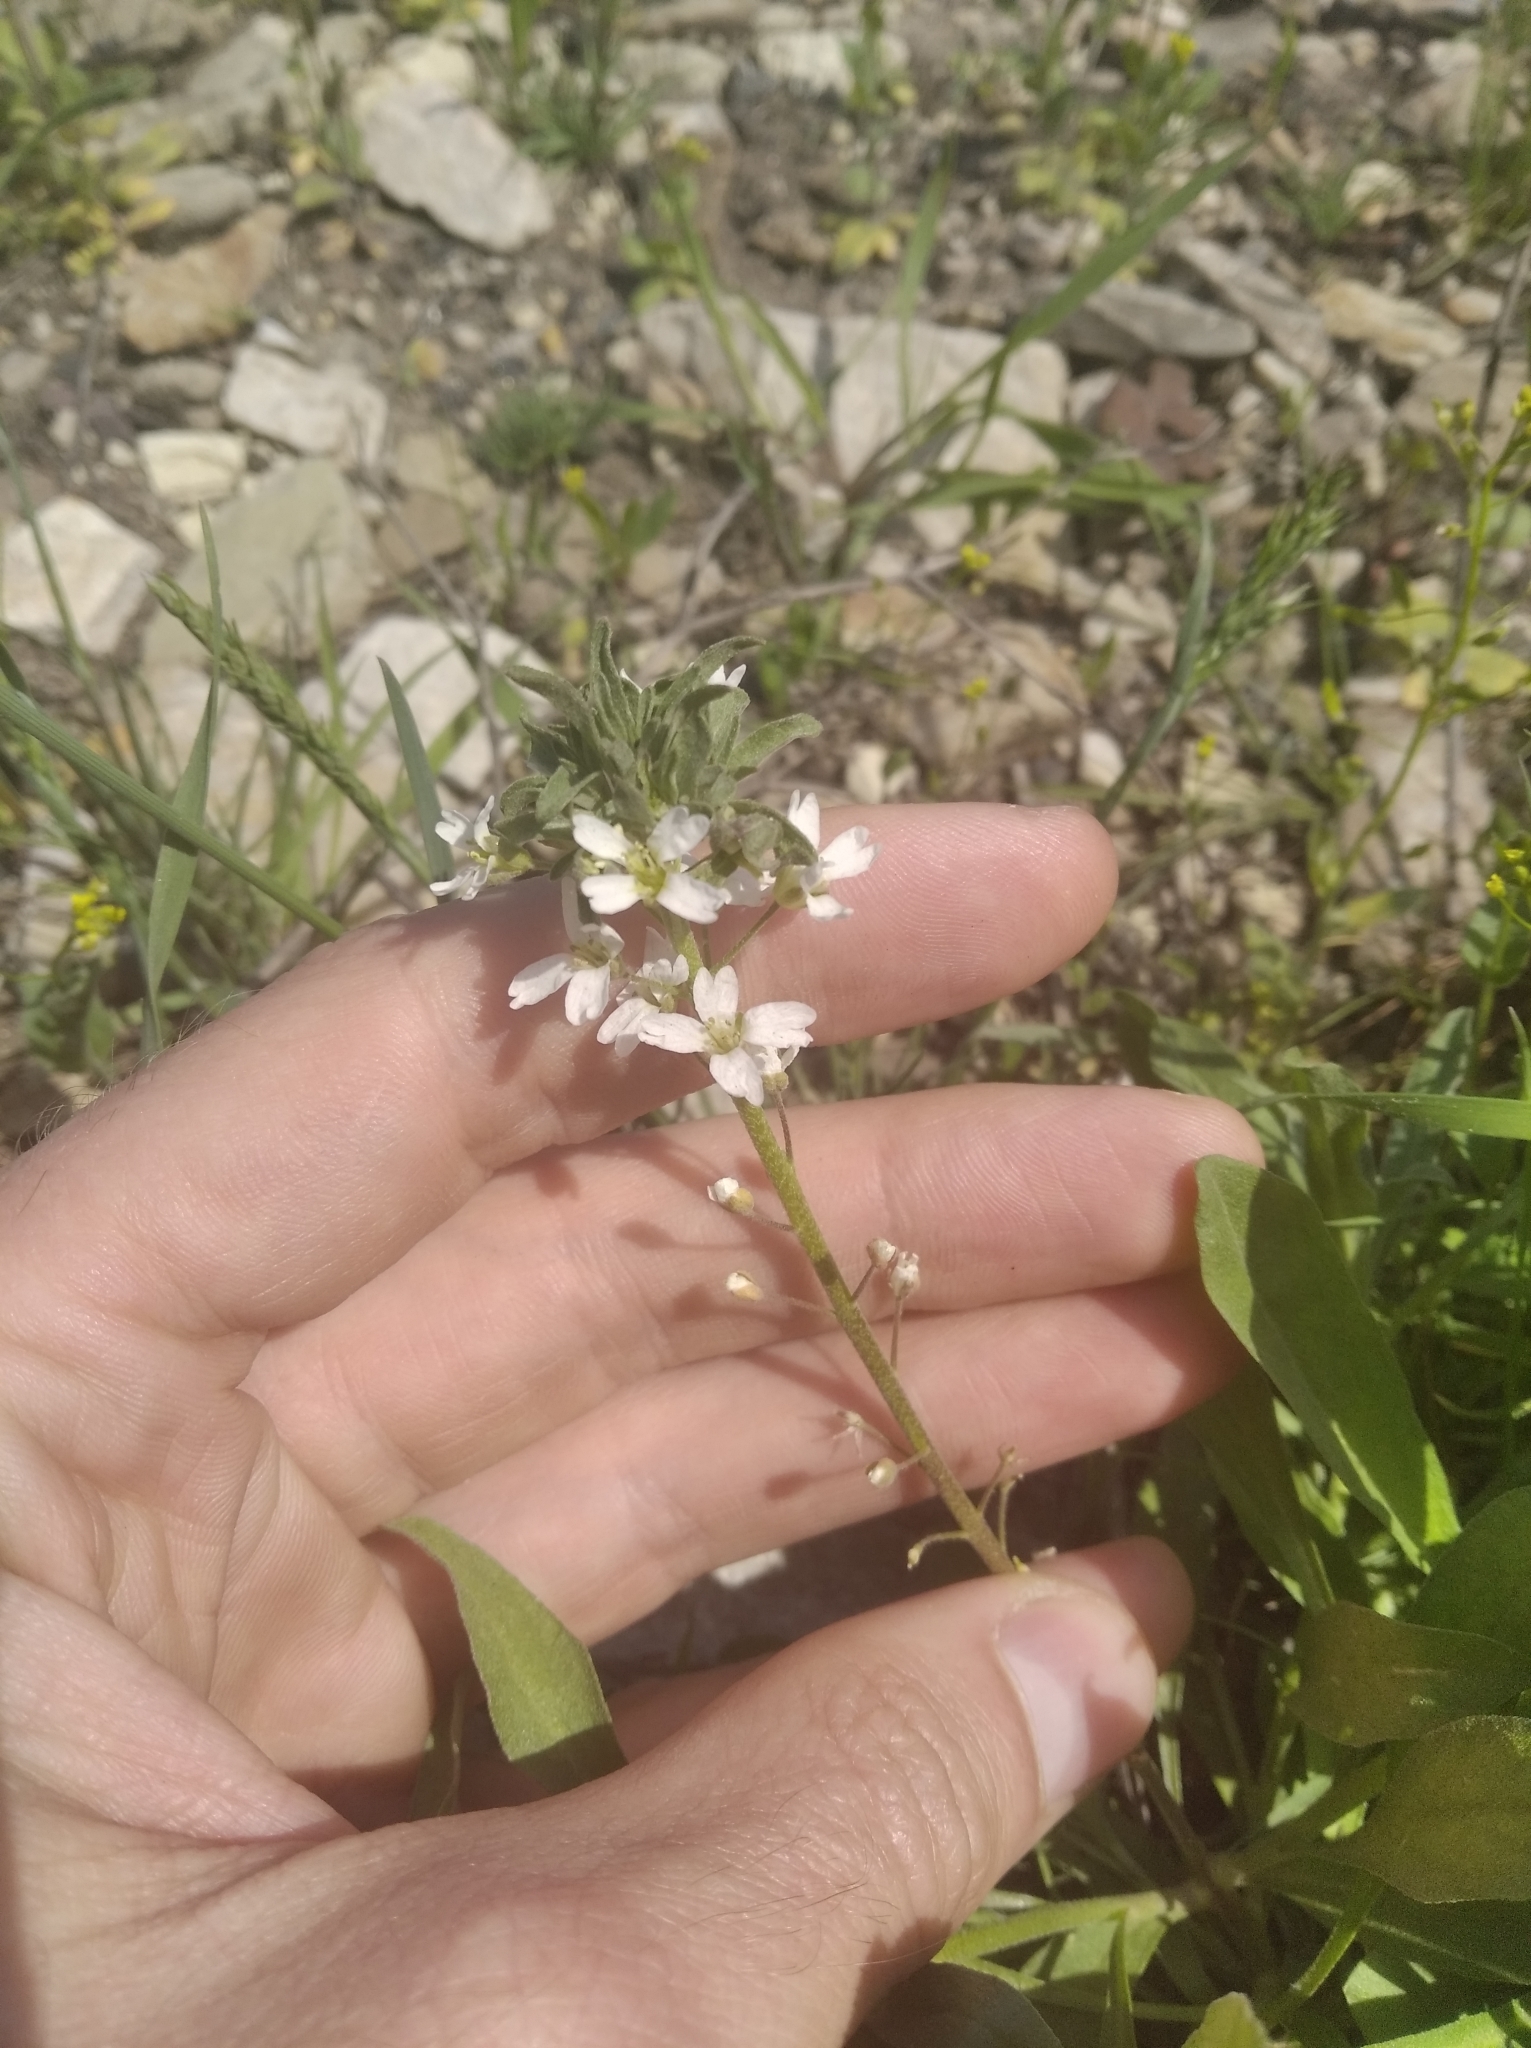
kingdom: Plantae
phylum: Tracheophyta
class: Magnoliopsida
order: Brassicales
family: Brassicaceae
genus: Berteroa
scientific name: Berteroa incana
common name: Hoary alison
